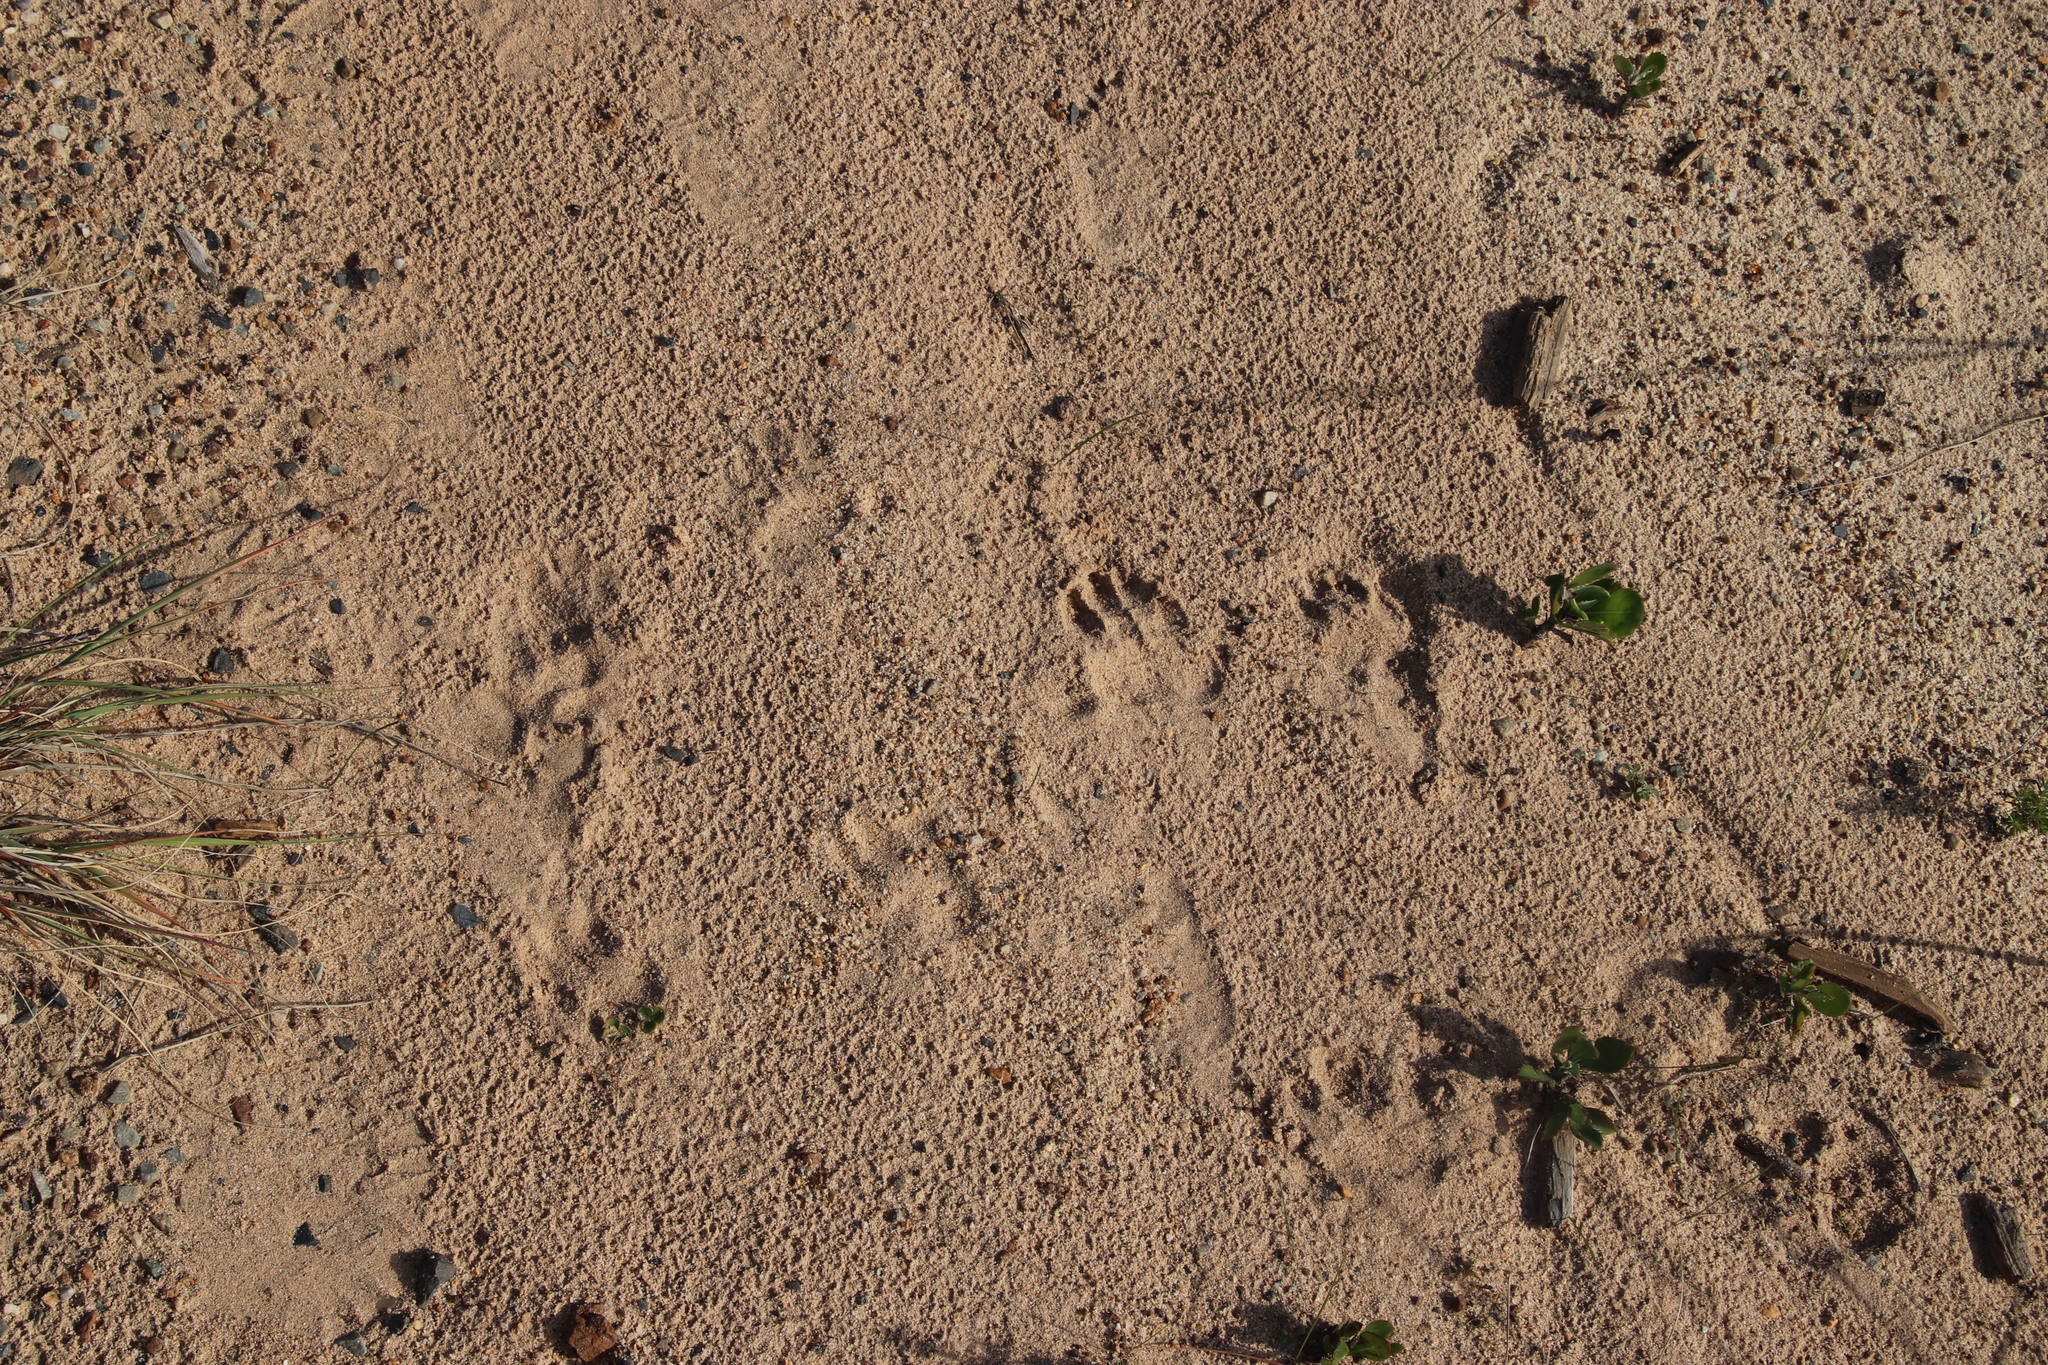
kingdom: Animalia
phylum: Chordata
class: Mammalia
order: Primates
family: Cercopithecidae
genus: Papio
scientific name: Papio ursinus
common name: Chacma baboon
